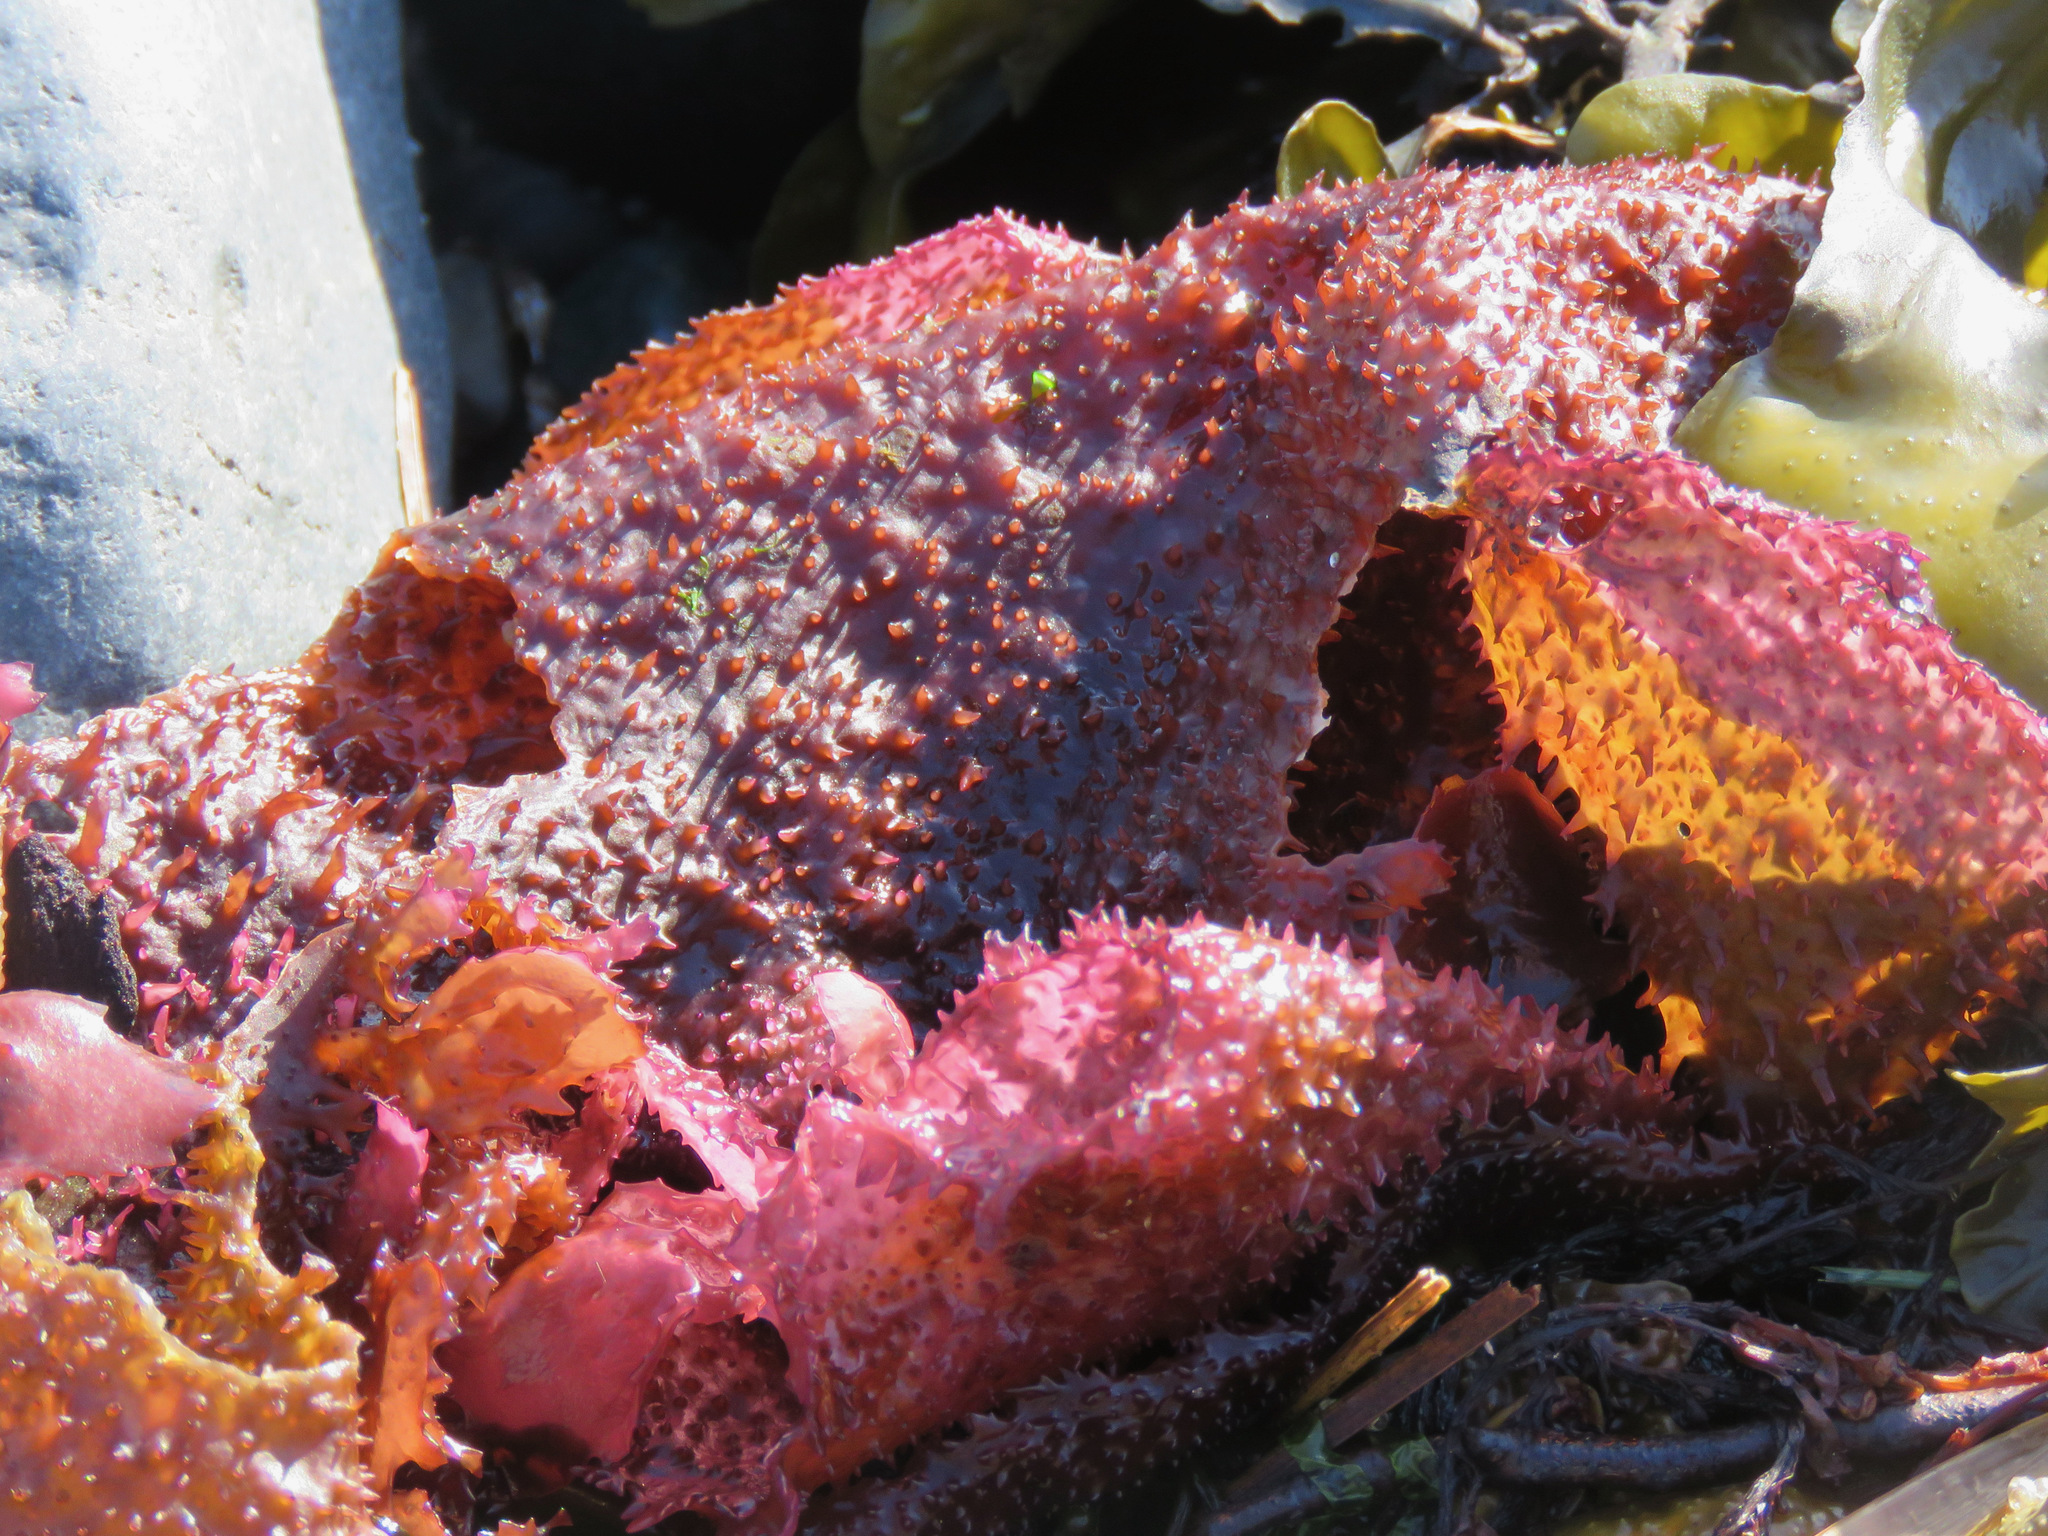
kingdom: Plantae
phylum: Rhodophyta
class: Florideophyceae
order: Gigartinales
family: Gigartinaceae
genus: Chondracanthus
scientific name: Chondracanthus exasperatus
